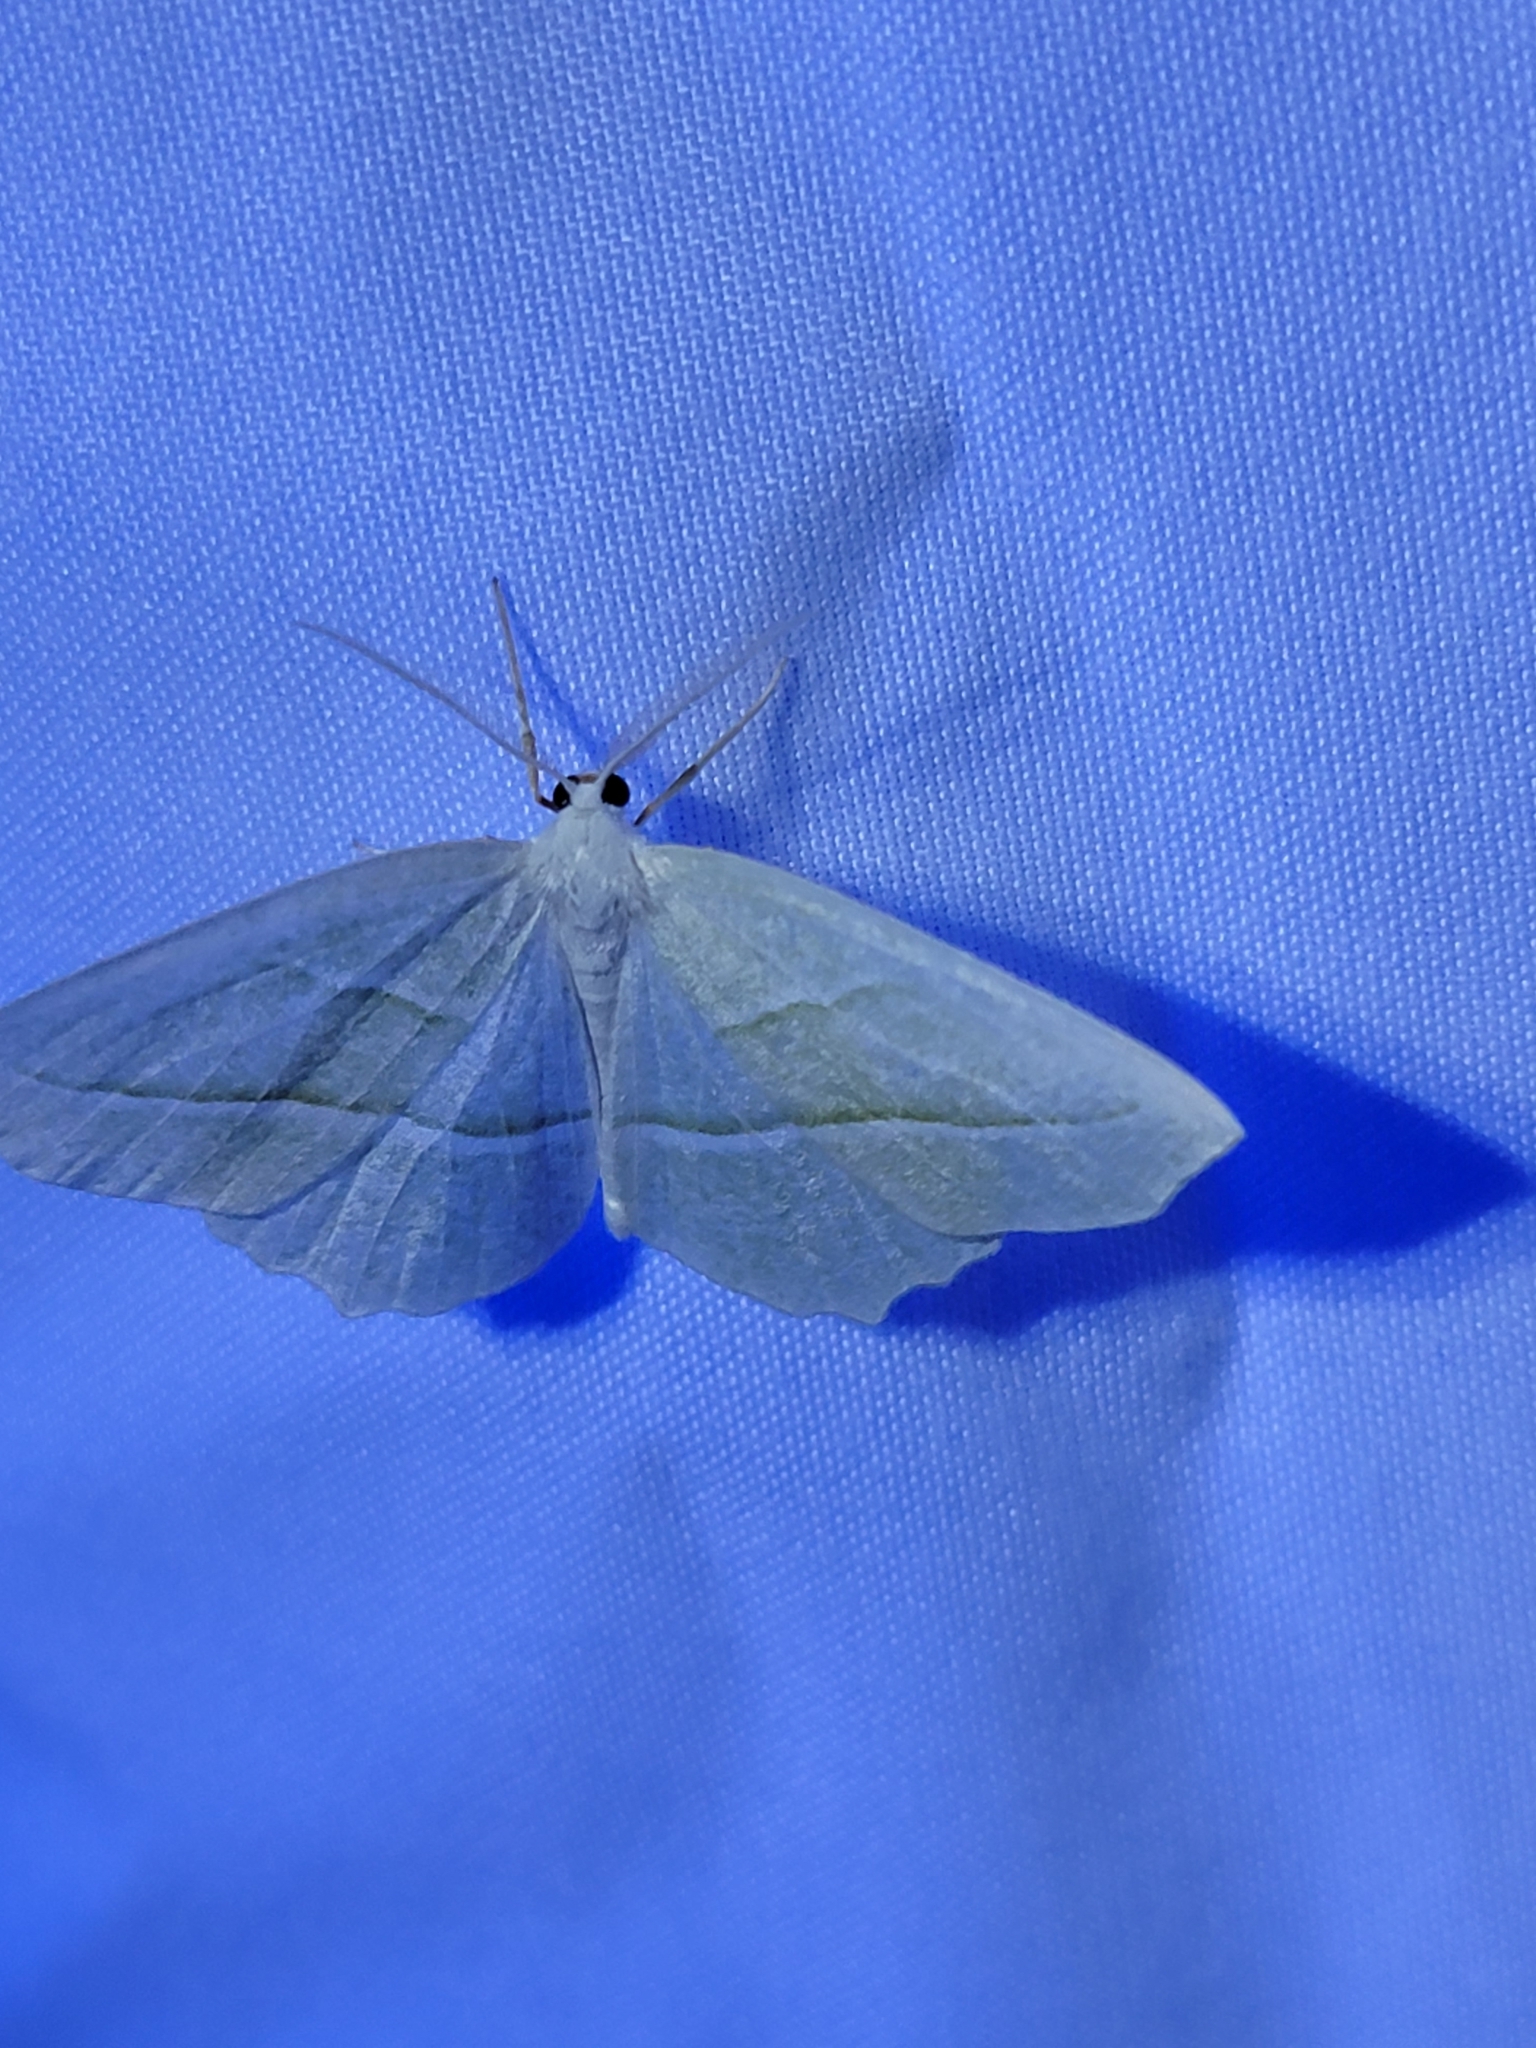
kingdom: Animalia
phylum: Arthropoda
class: Insecta
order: Lepidoptera
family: Geometridae
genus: Campaea
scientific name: Campaea perlata
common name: Fringed looper
